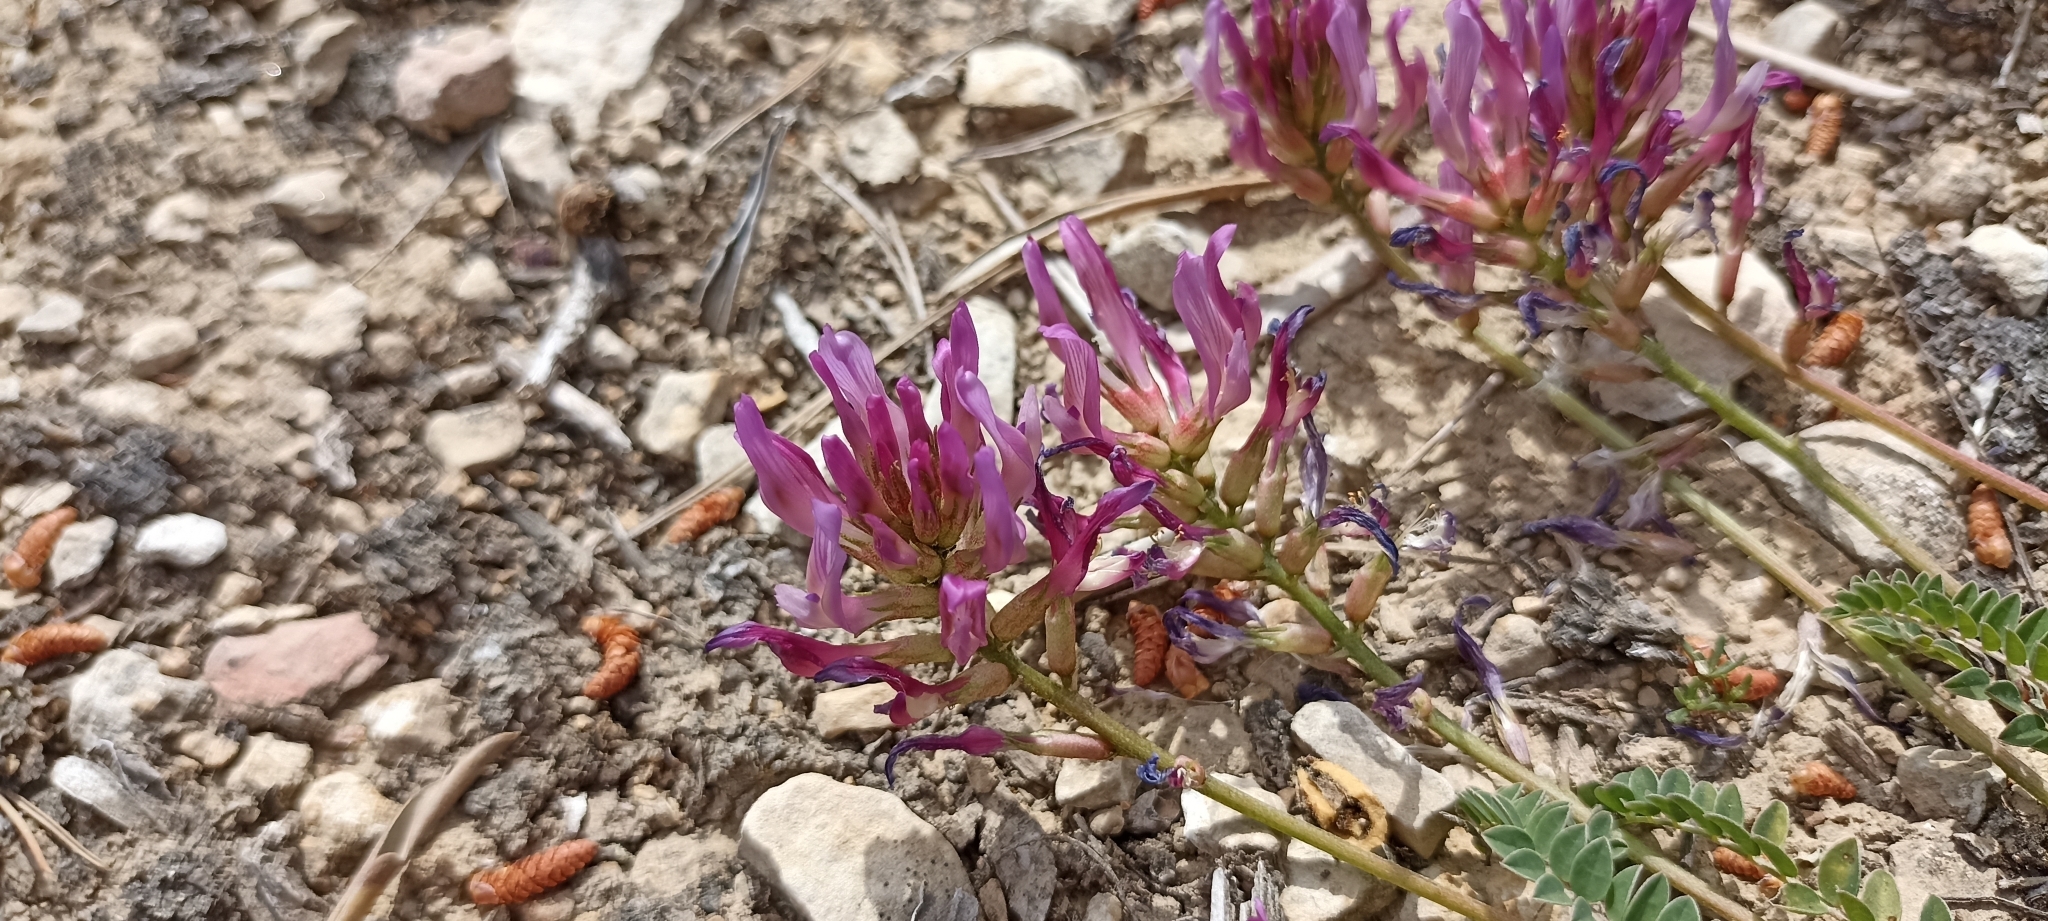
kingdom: Plantae
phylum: Tracheophyta
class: Magnoliopsida
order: Fabales
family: Fabaceae
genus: Astragalus
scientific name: Astragalus monspessulanus
